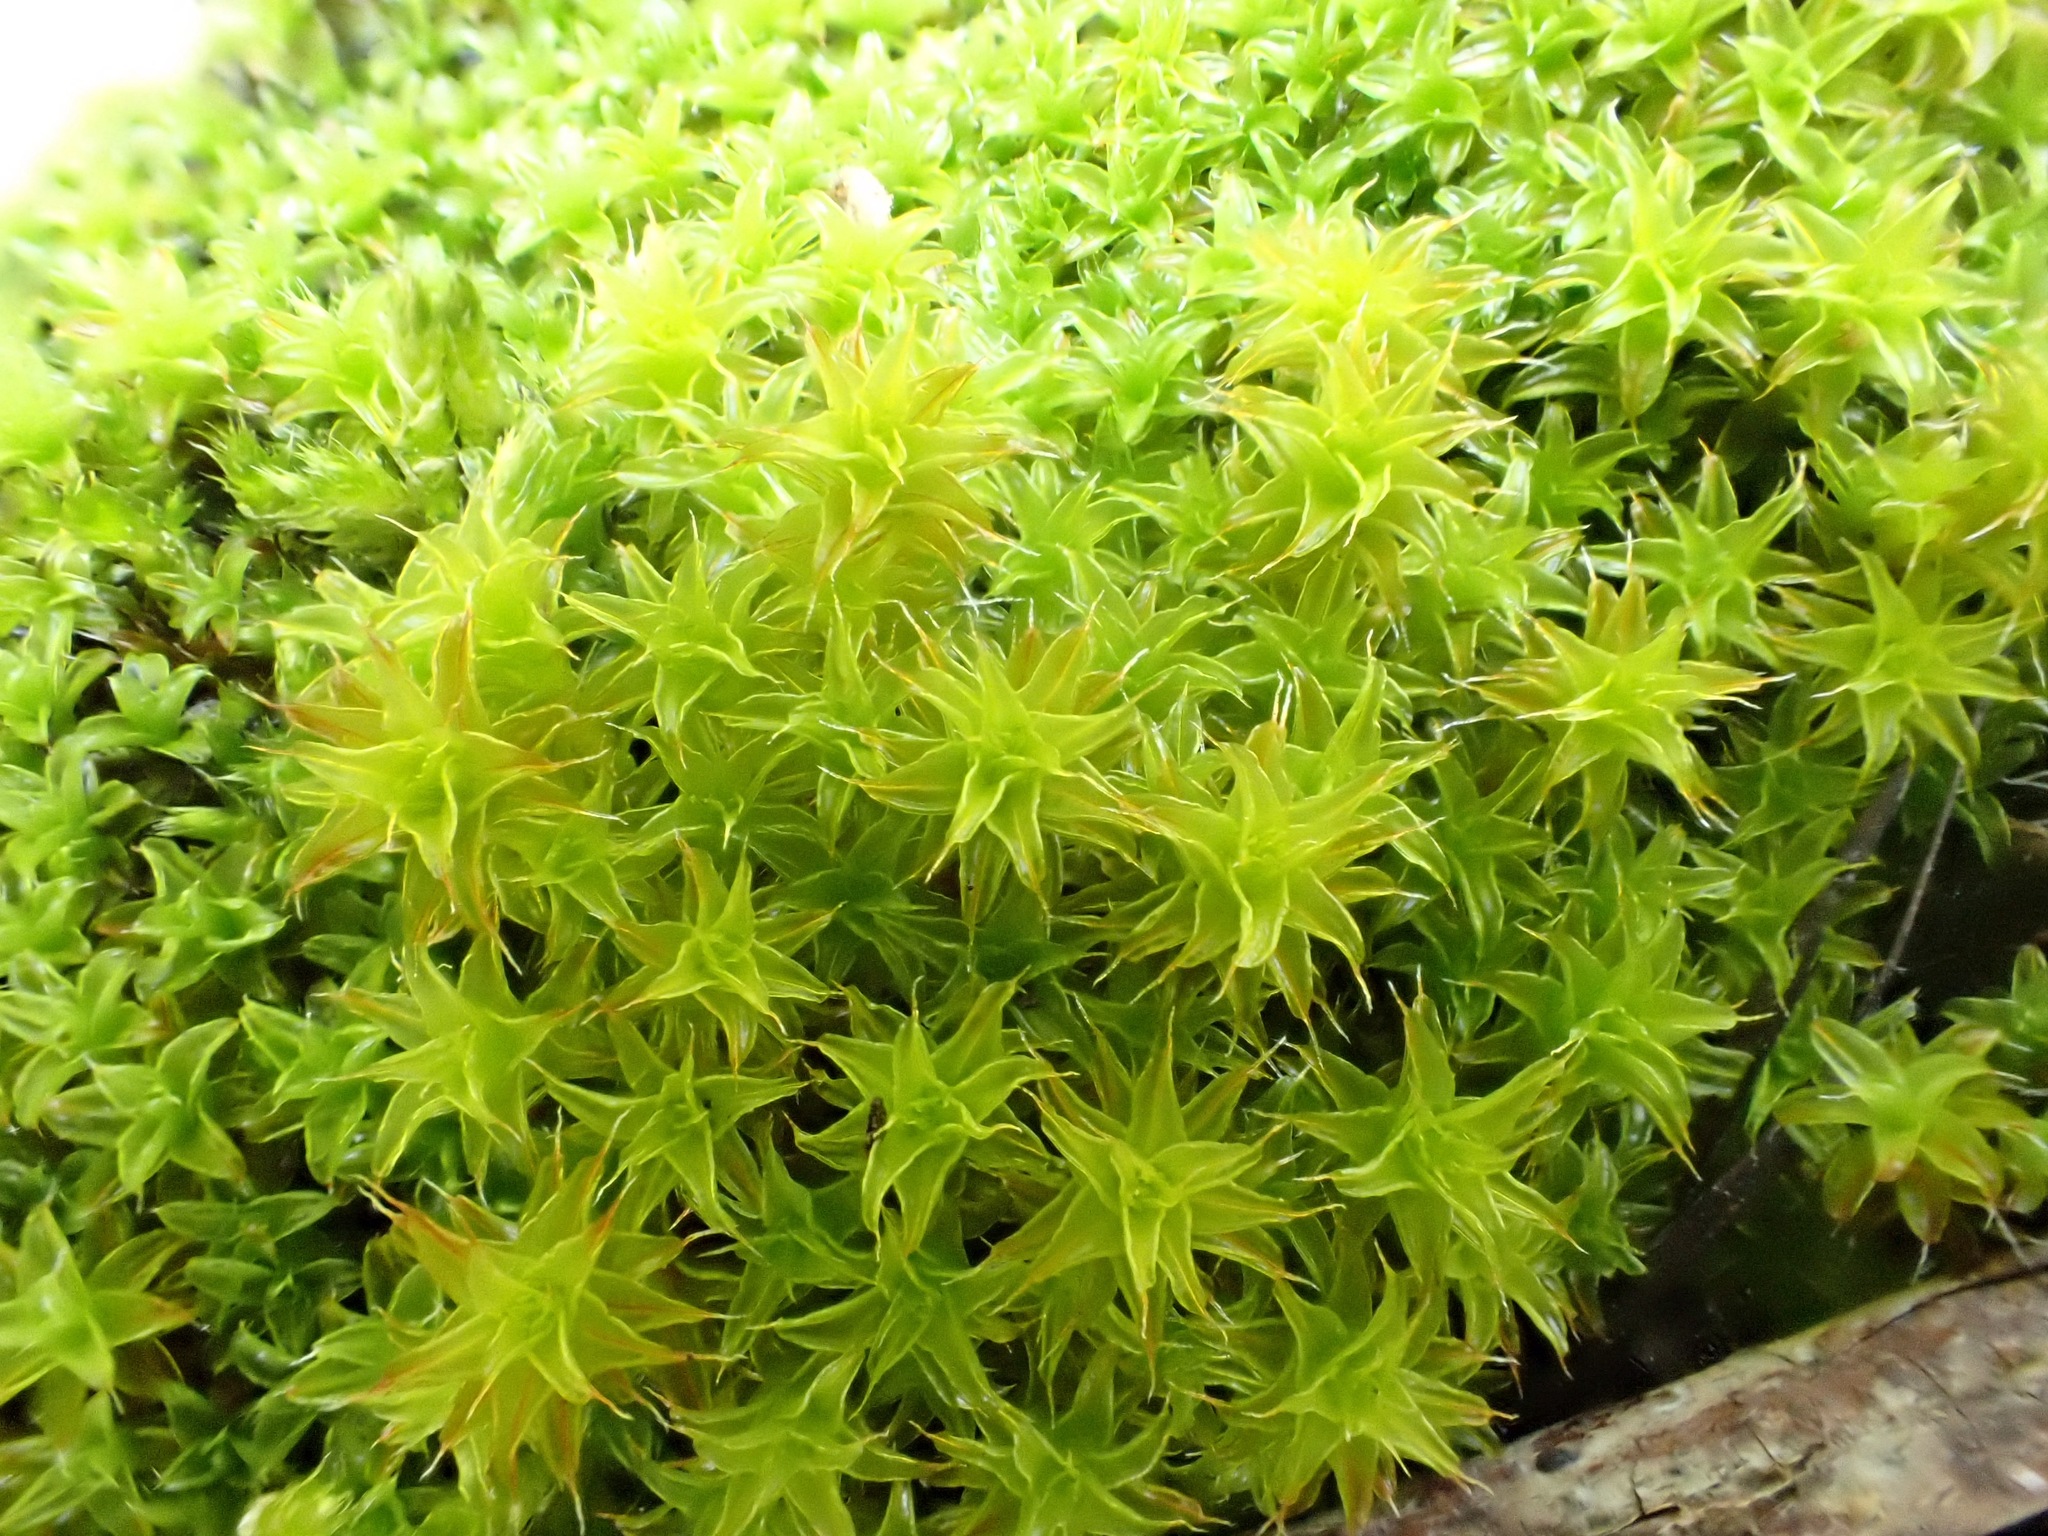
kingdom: Plantae
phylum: Bryophyta
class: Bryopsida
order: Pottiales
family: Pottiaceae
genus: Syntrichia
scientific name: Syntrichia ruralis
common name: Sidewalk screw moss
